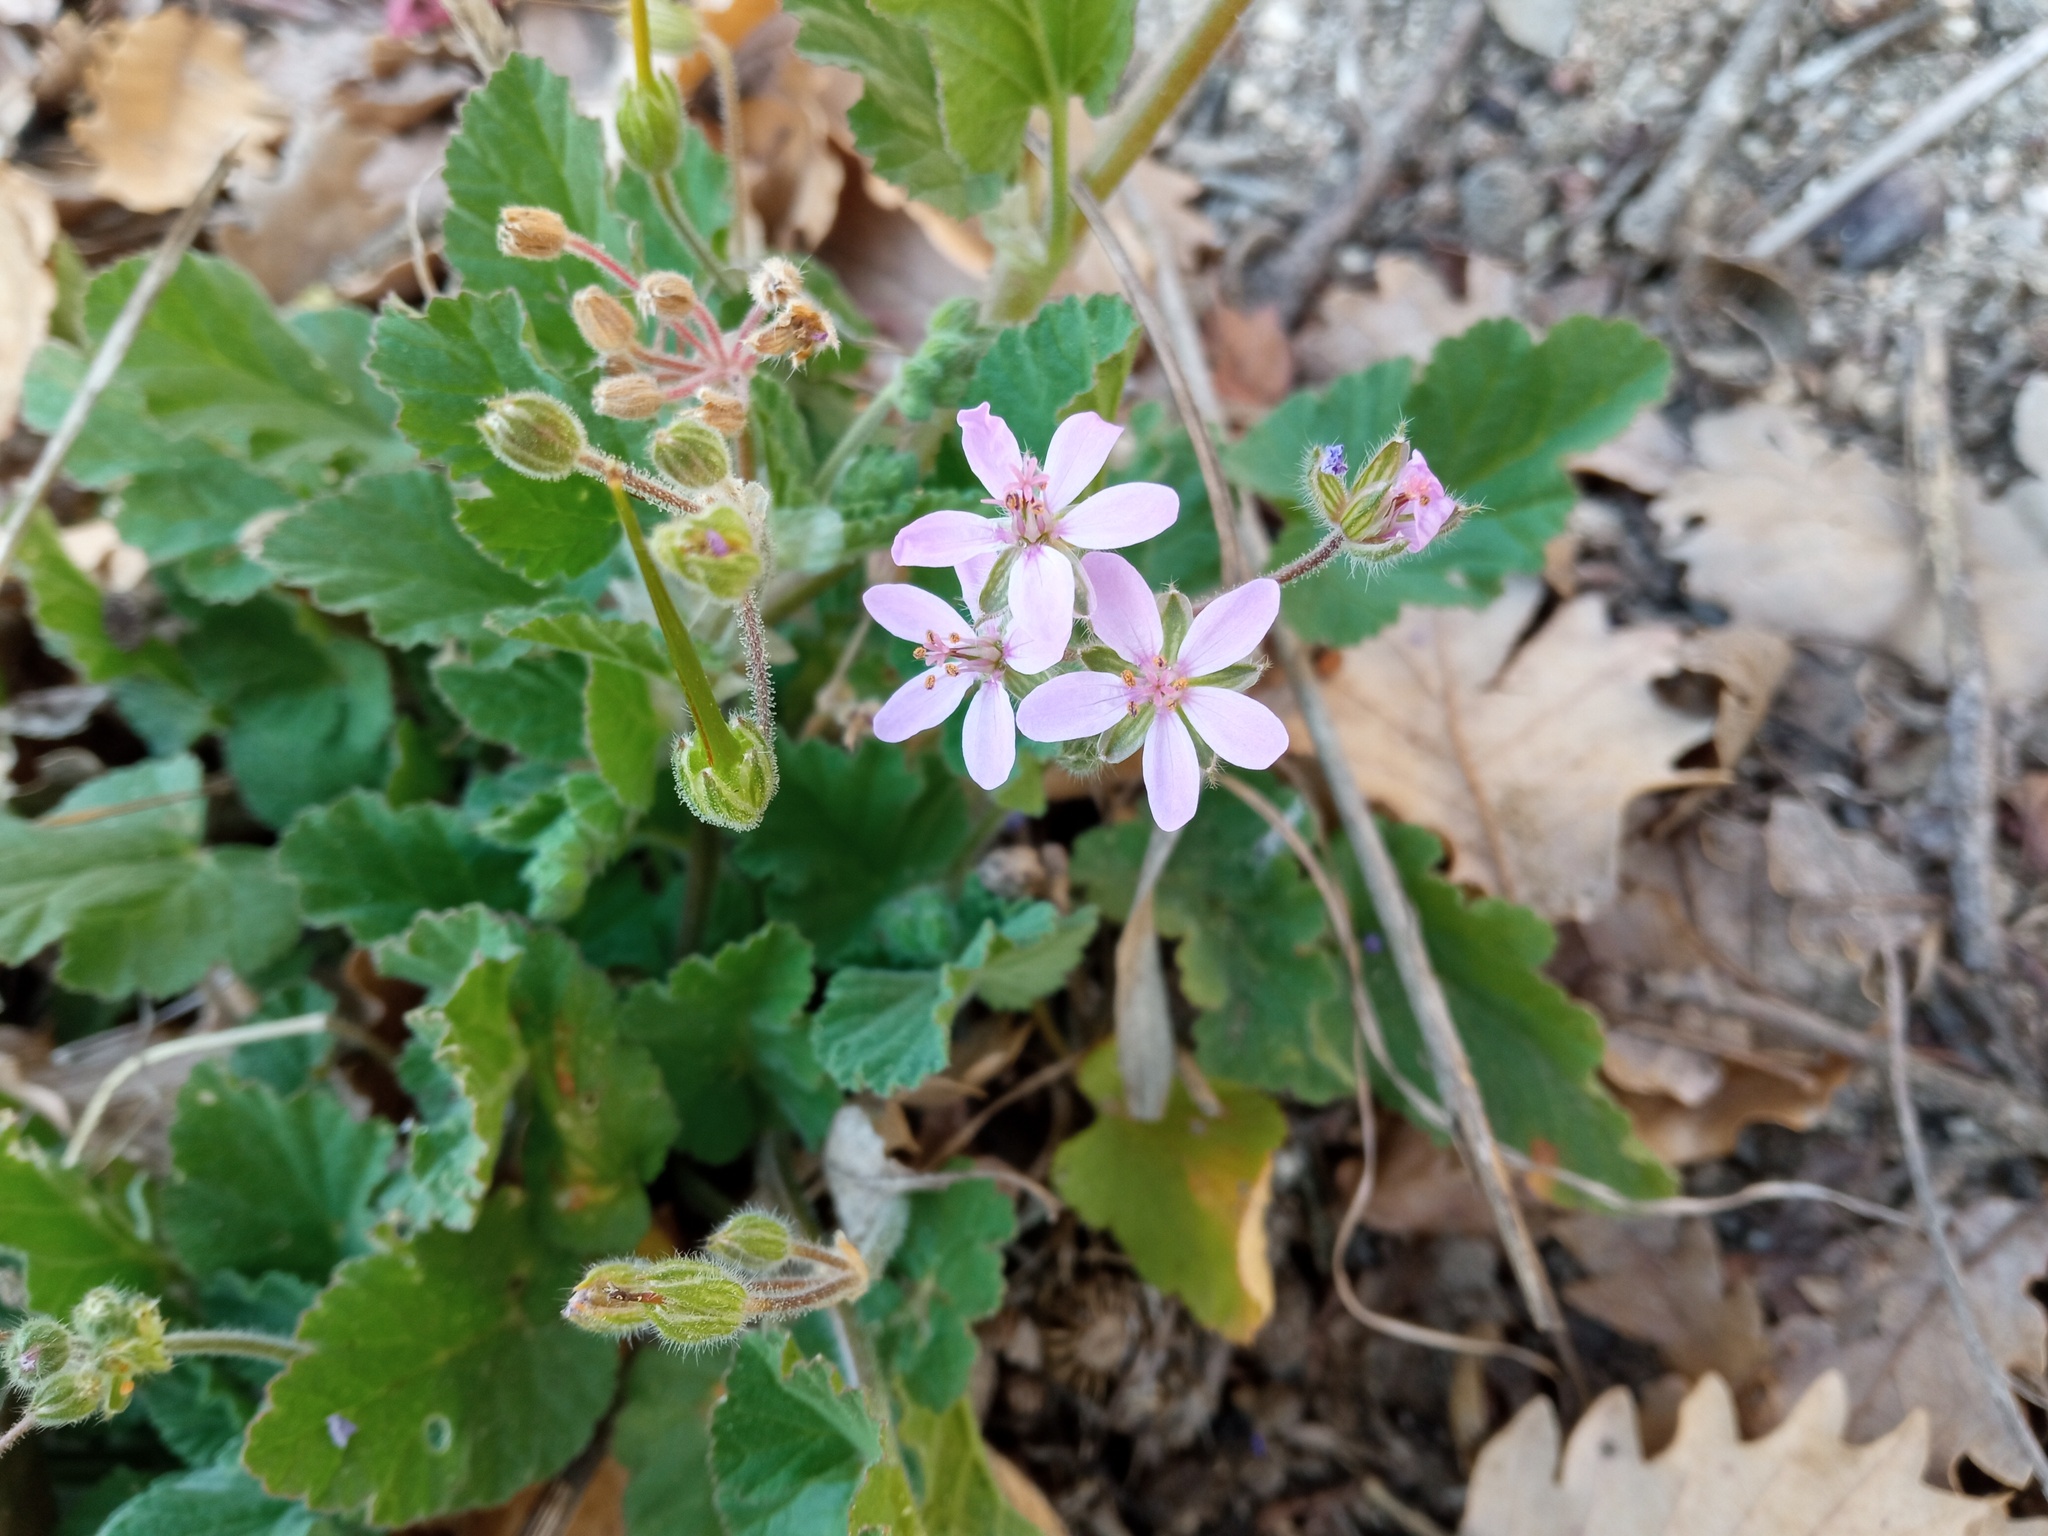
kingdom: Plantae
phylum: Tracheophyta
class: Magnoliopsida
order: Geraniales
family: Geraniaceae
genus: Erodium
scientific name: Erodium malacoides
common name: Soft stork's-bill
